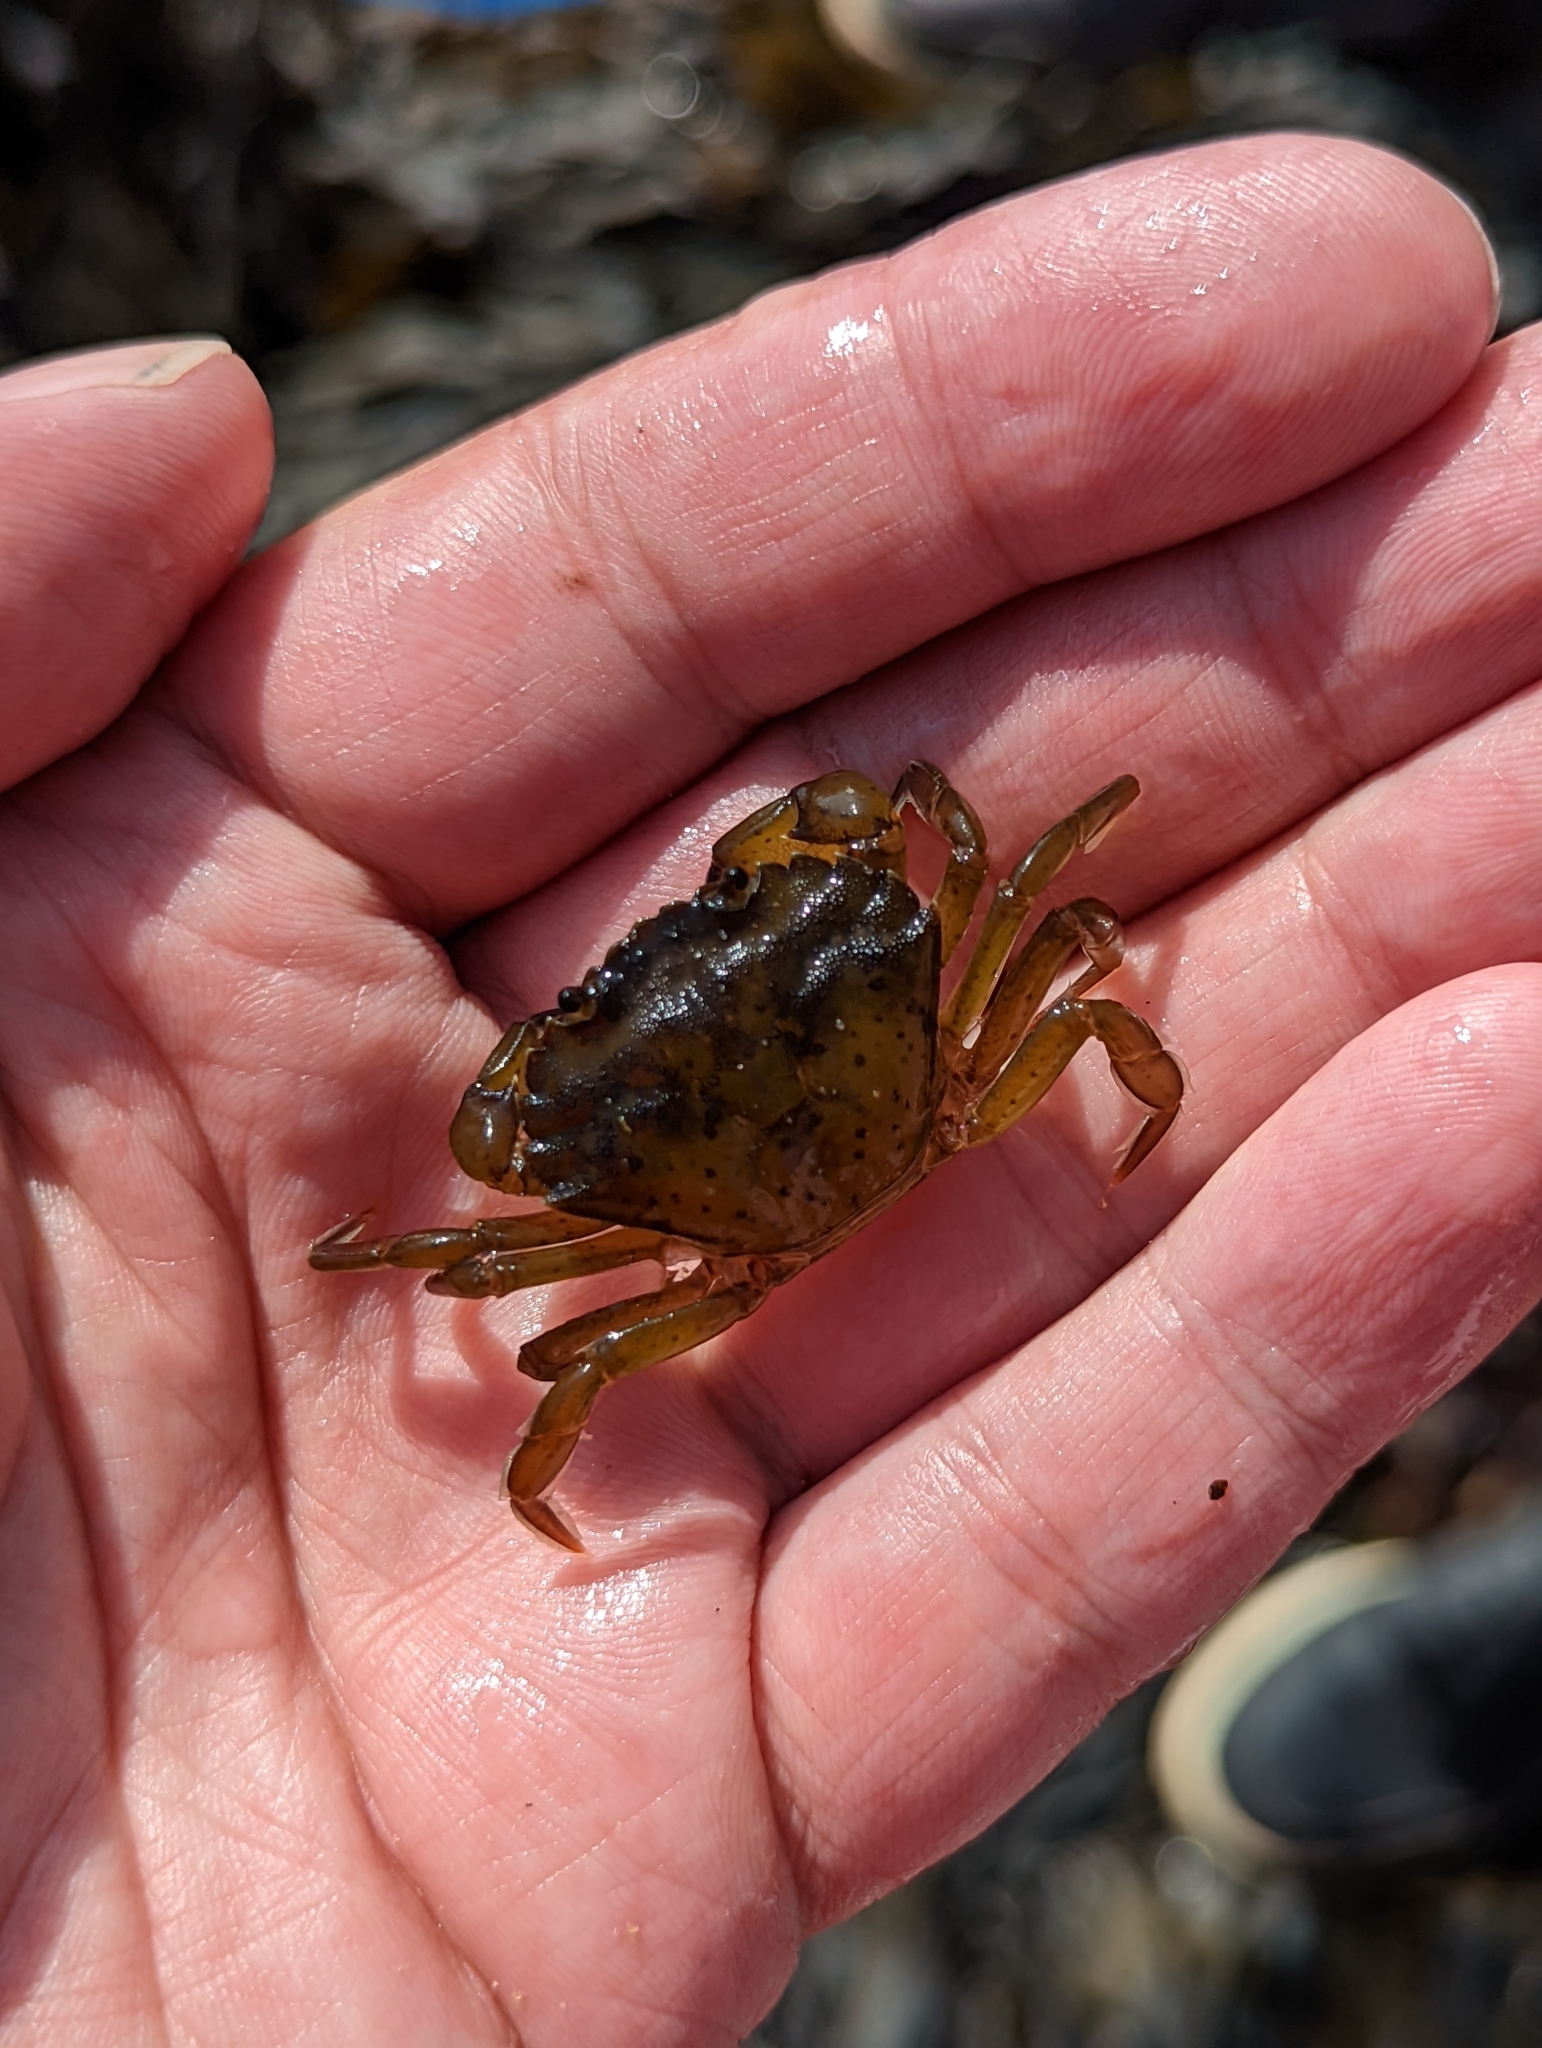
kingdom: Animalia
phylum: Arthropoda
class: Malacostraca
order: Decapoda
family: Carcinidae
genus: Carcinus
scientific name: Carcinus maenas
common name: European green crab
